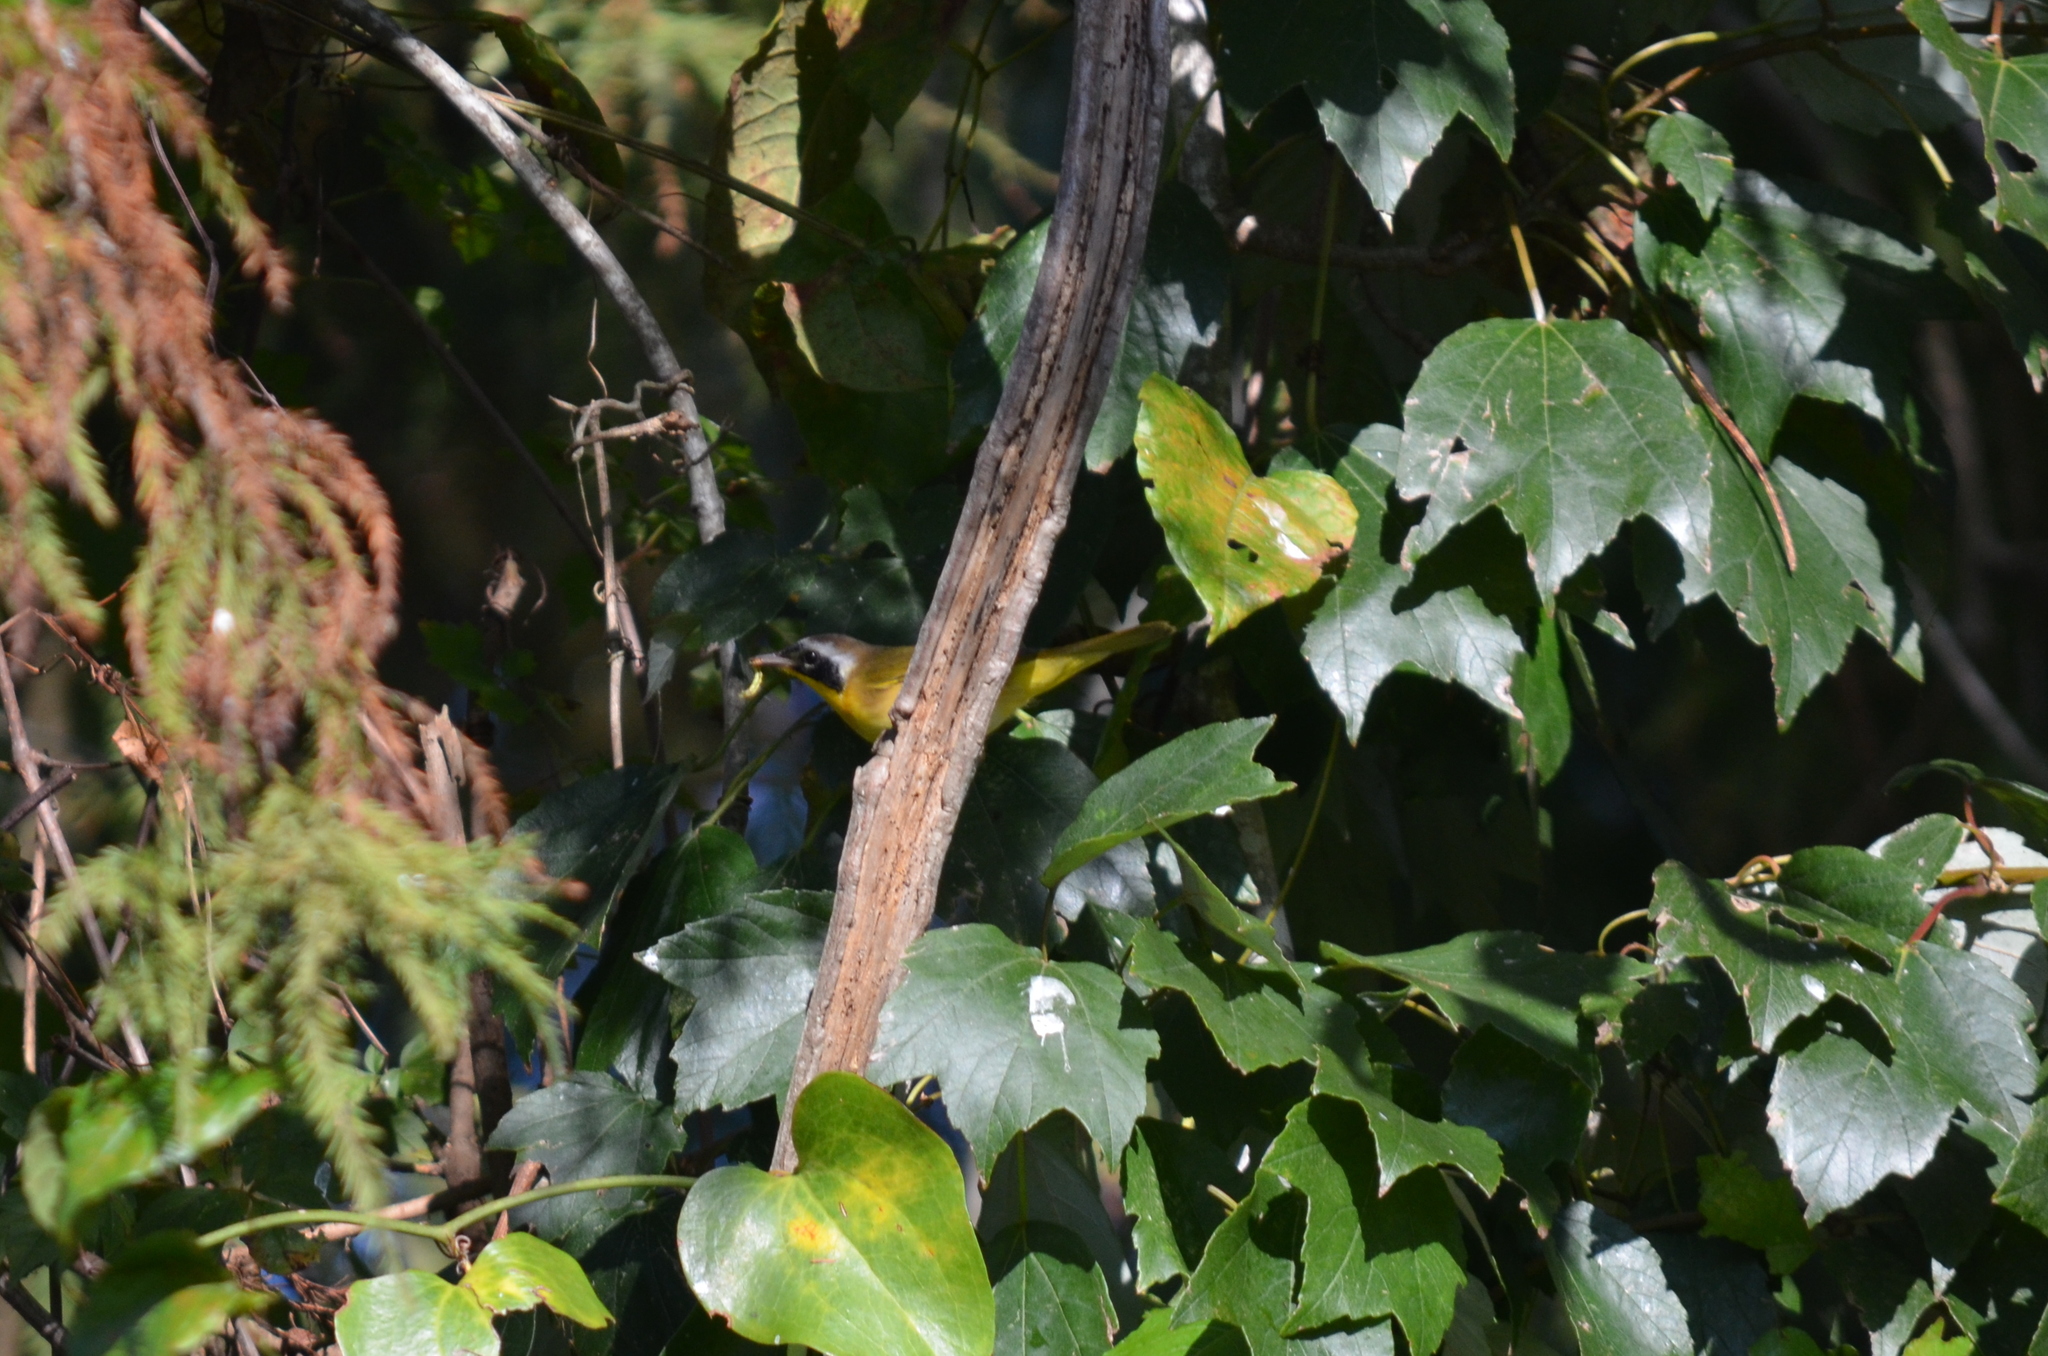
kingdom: Animalia
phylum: Chordata
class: Aves
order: Passeriformes
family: Parulidae
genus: Geothlypis
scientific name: Geothlypis trichas
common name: Common yellowthroat
